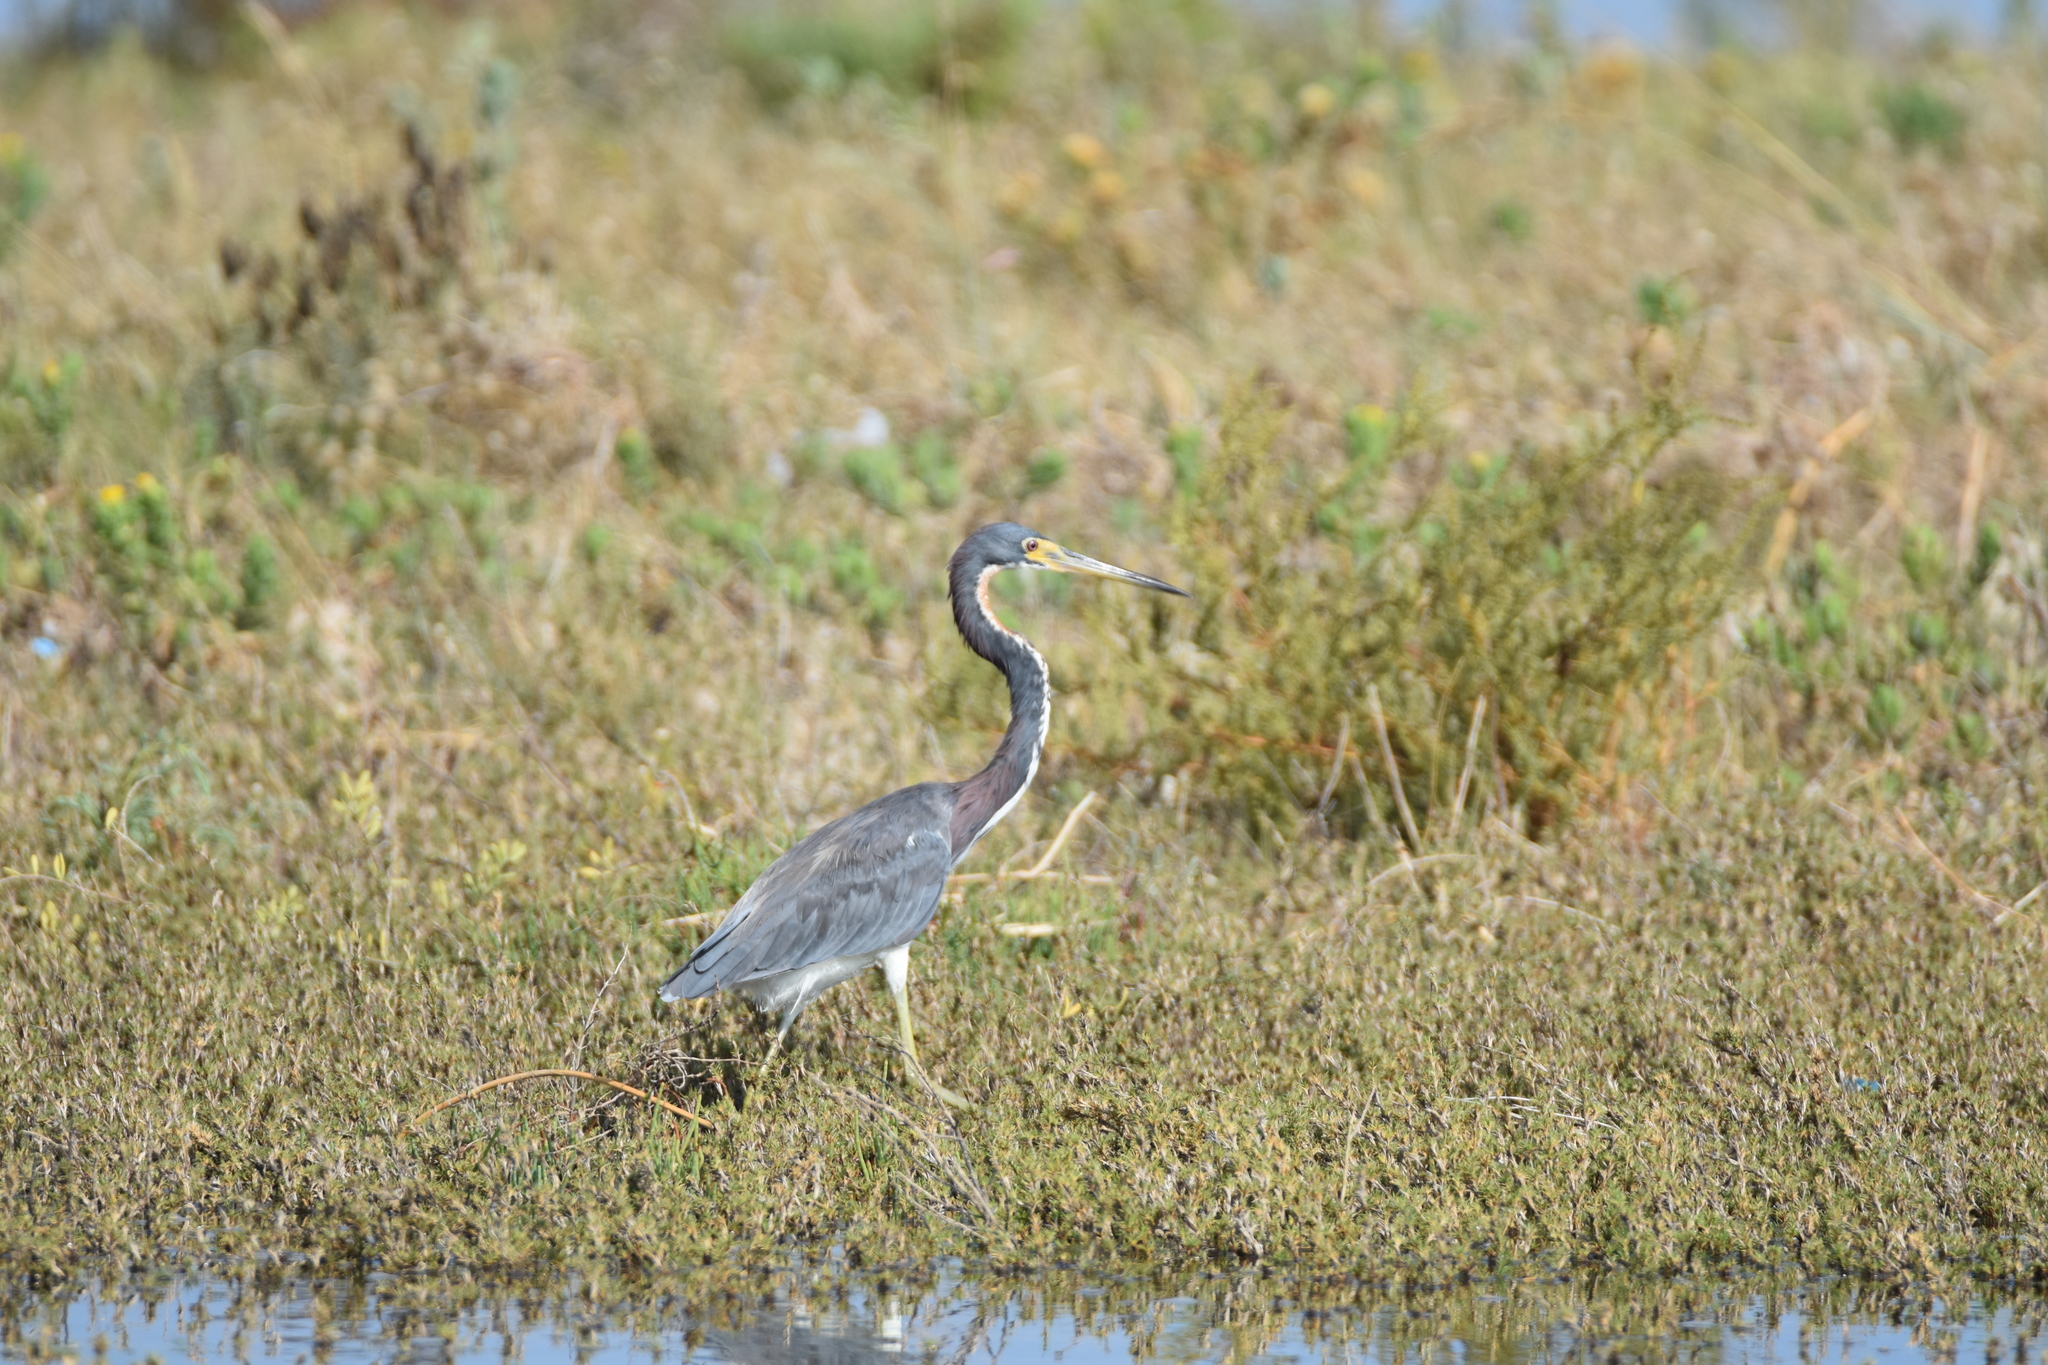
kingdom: Animalia
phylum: Chordata
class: Aves
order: Pelecaniformes
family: Ardeidae
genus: Egretta
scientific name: Egretta tricolor
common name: Tricolored heron
